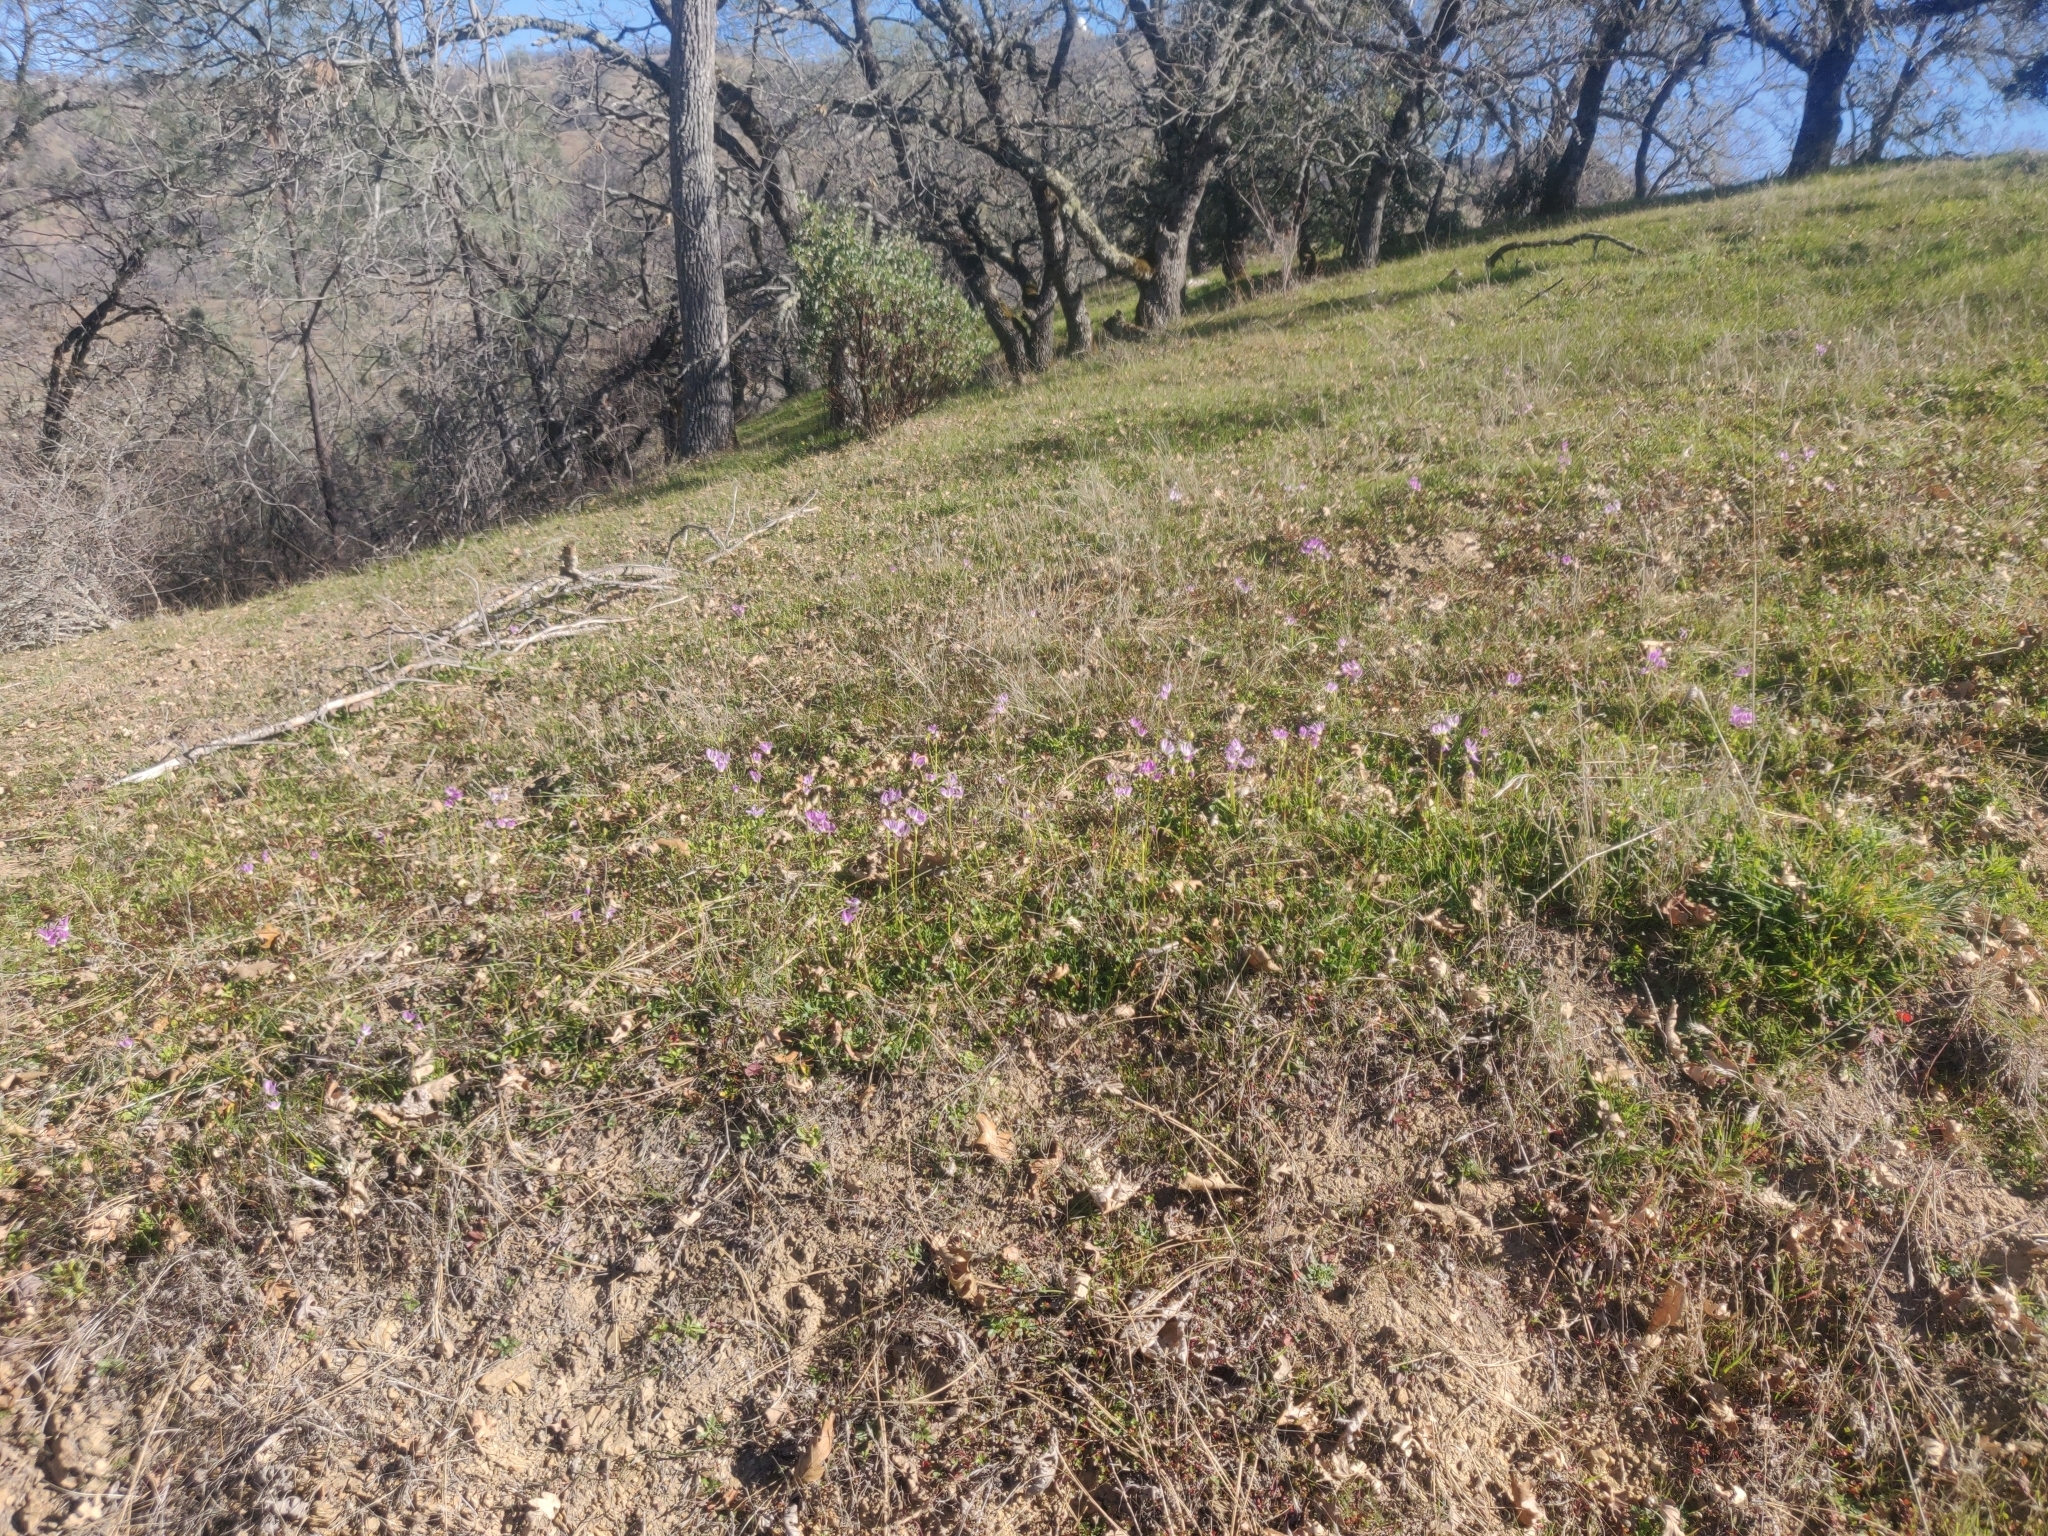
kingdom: Plantae
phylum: Tracheophyta
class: Magnoliopsida
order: Ericales
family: Primulaceae
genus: Dodecatheon
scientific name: Dodecatheon clevelandii
